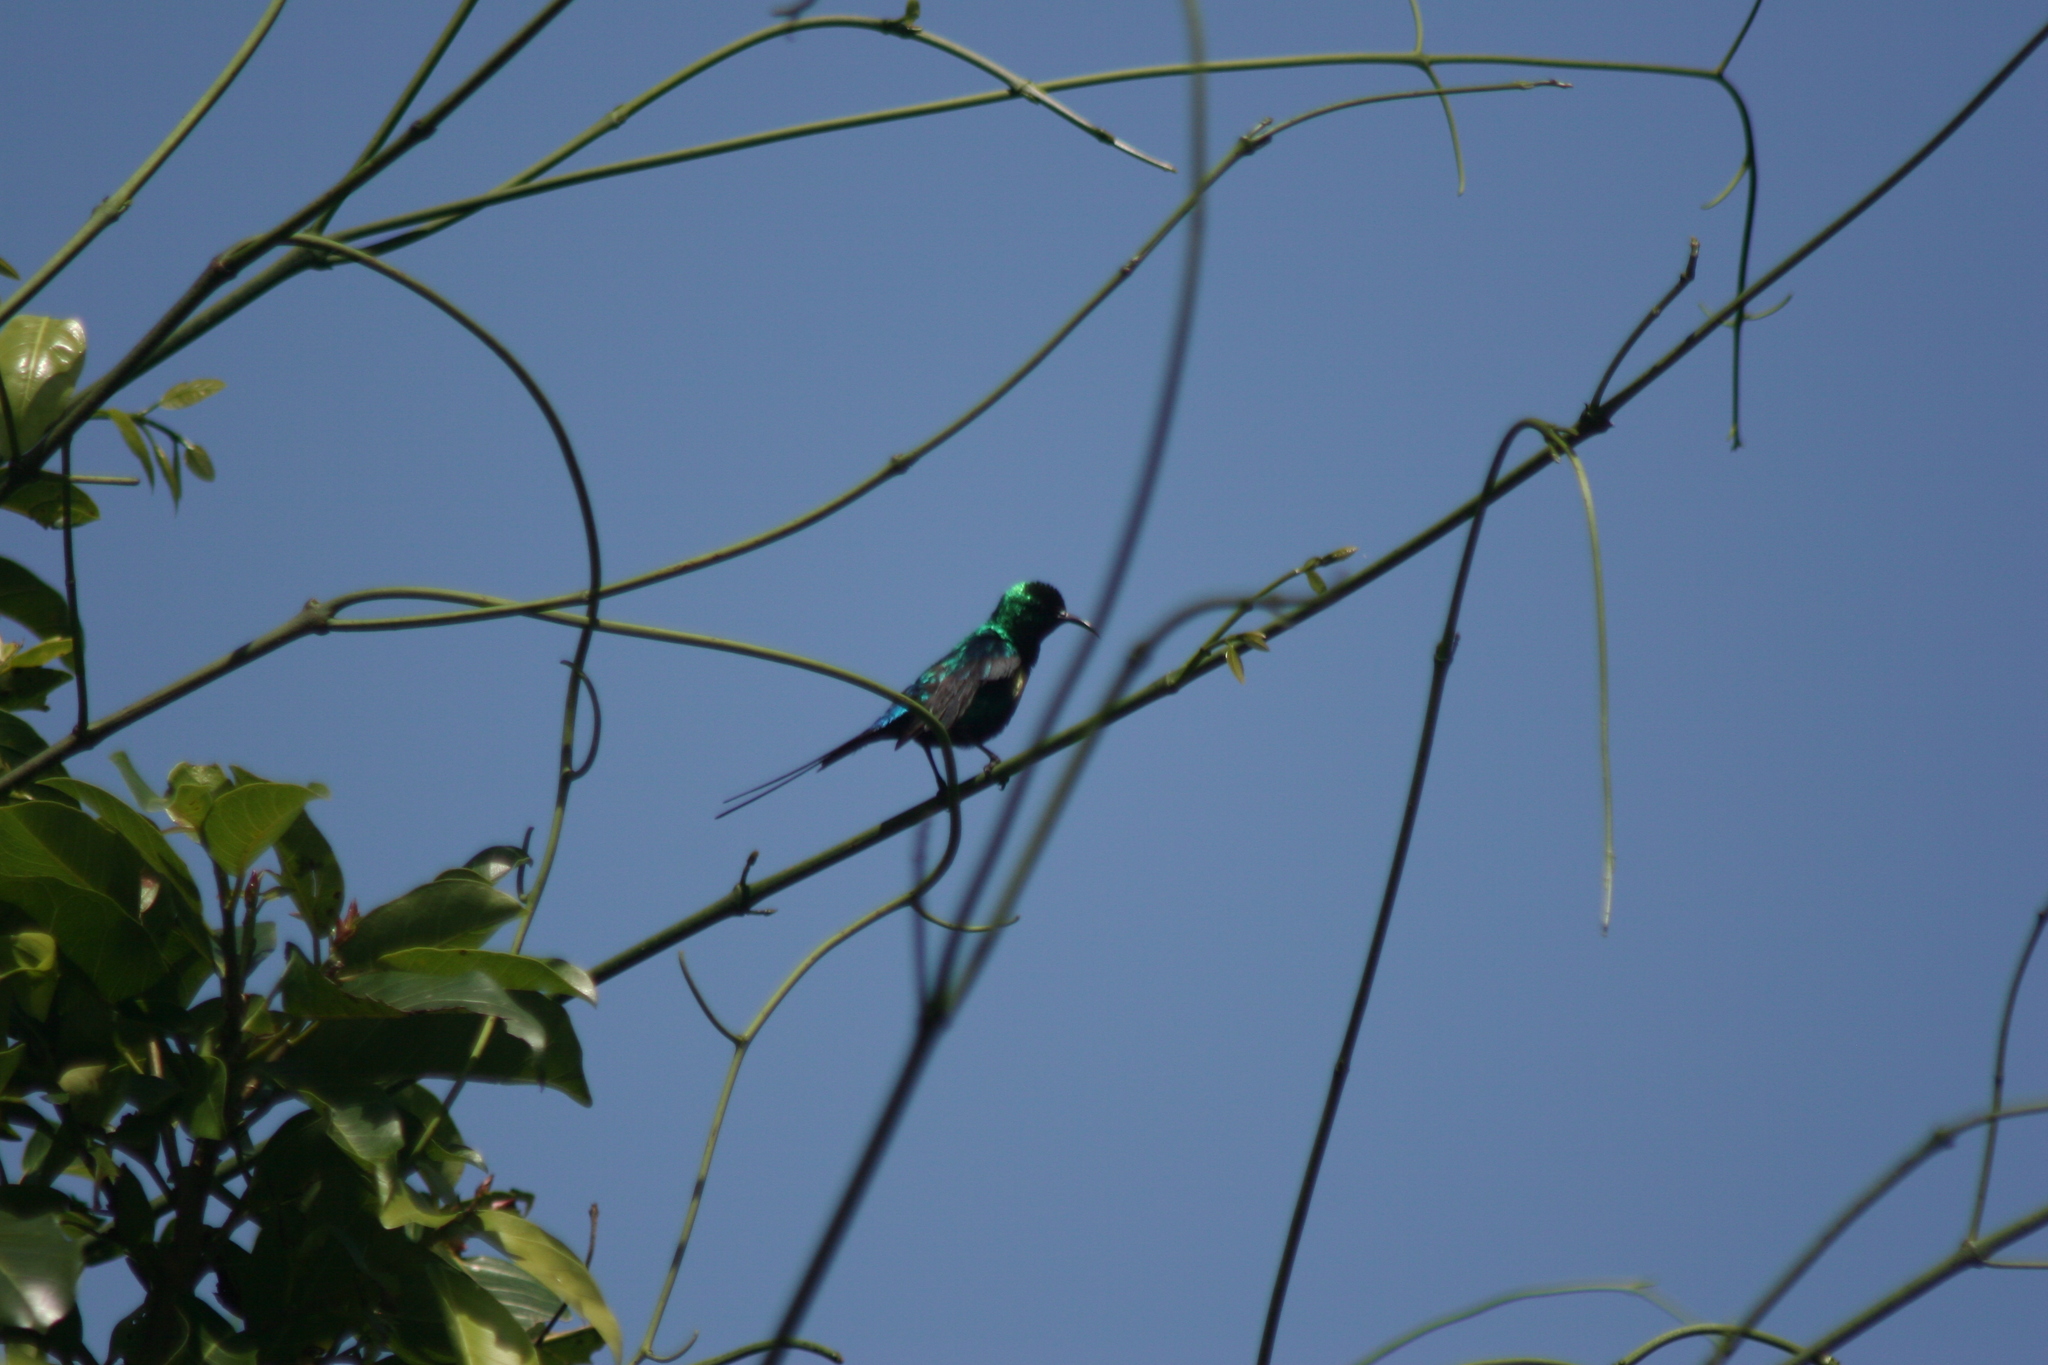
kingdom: Animalia
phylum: Chordata
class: Aves
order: Passeriformes
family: Nectariniidae
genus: Cinnyris
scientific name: Cinnyris pulchellus
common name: Beautiful sunbird
